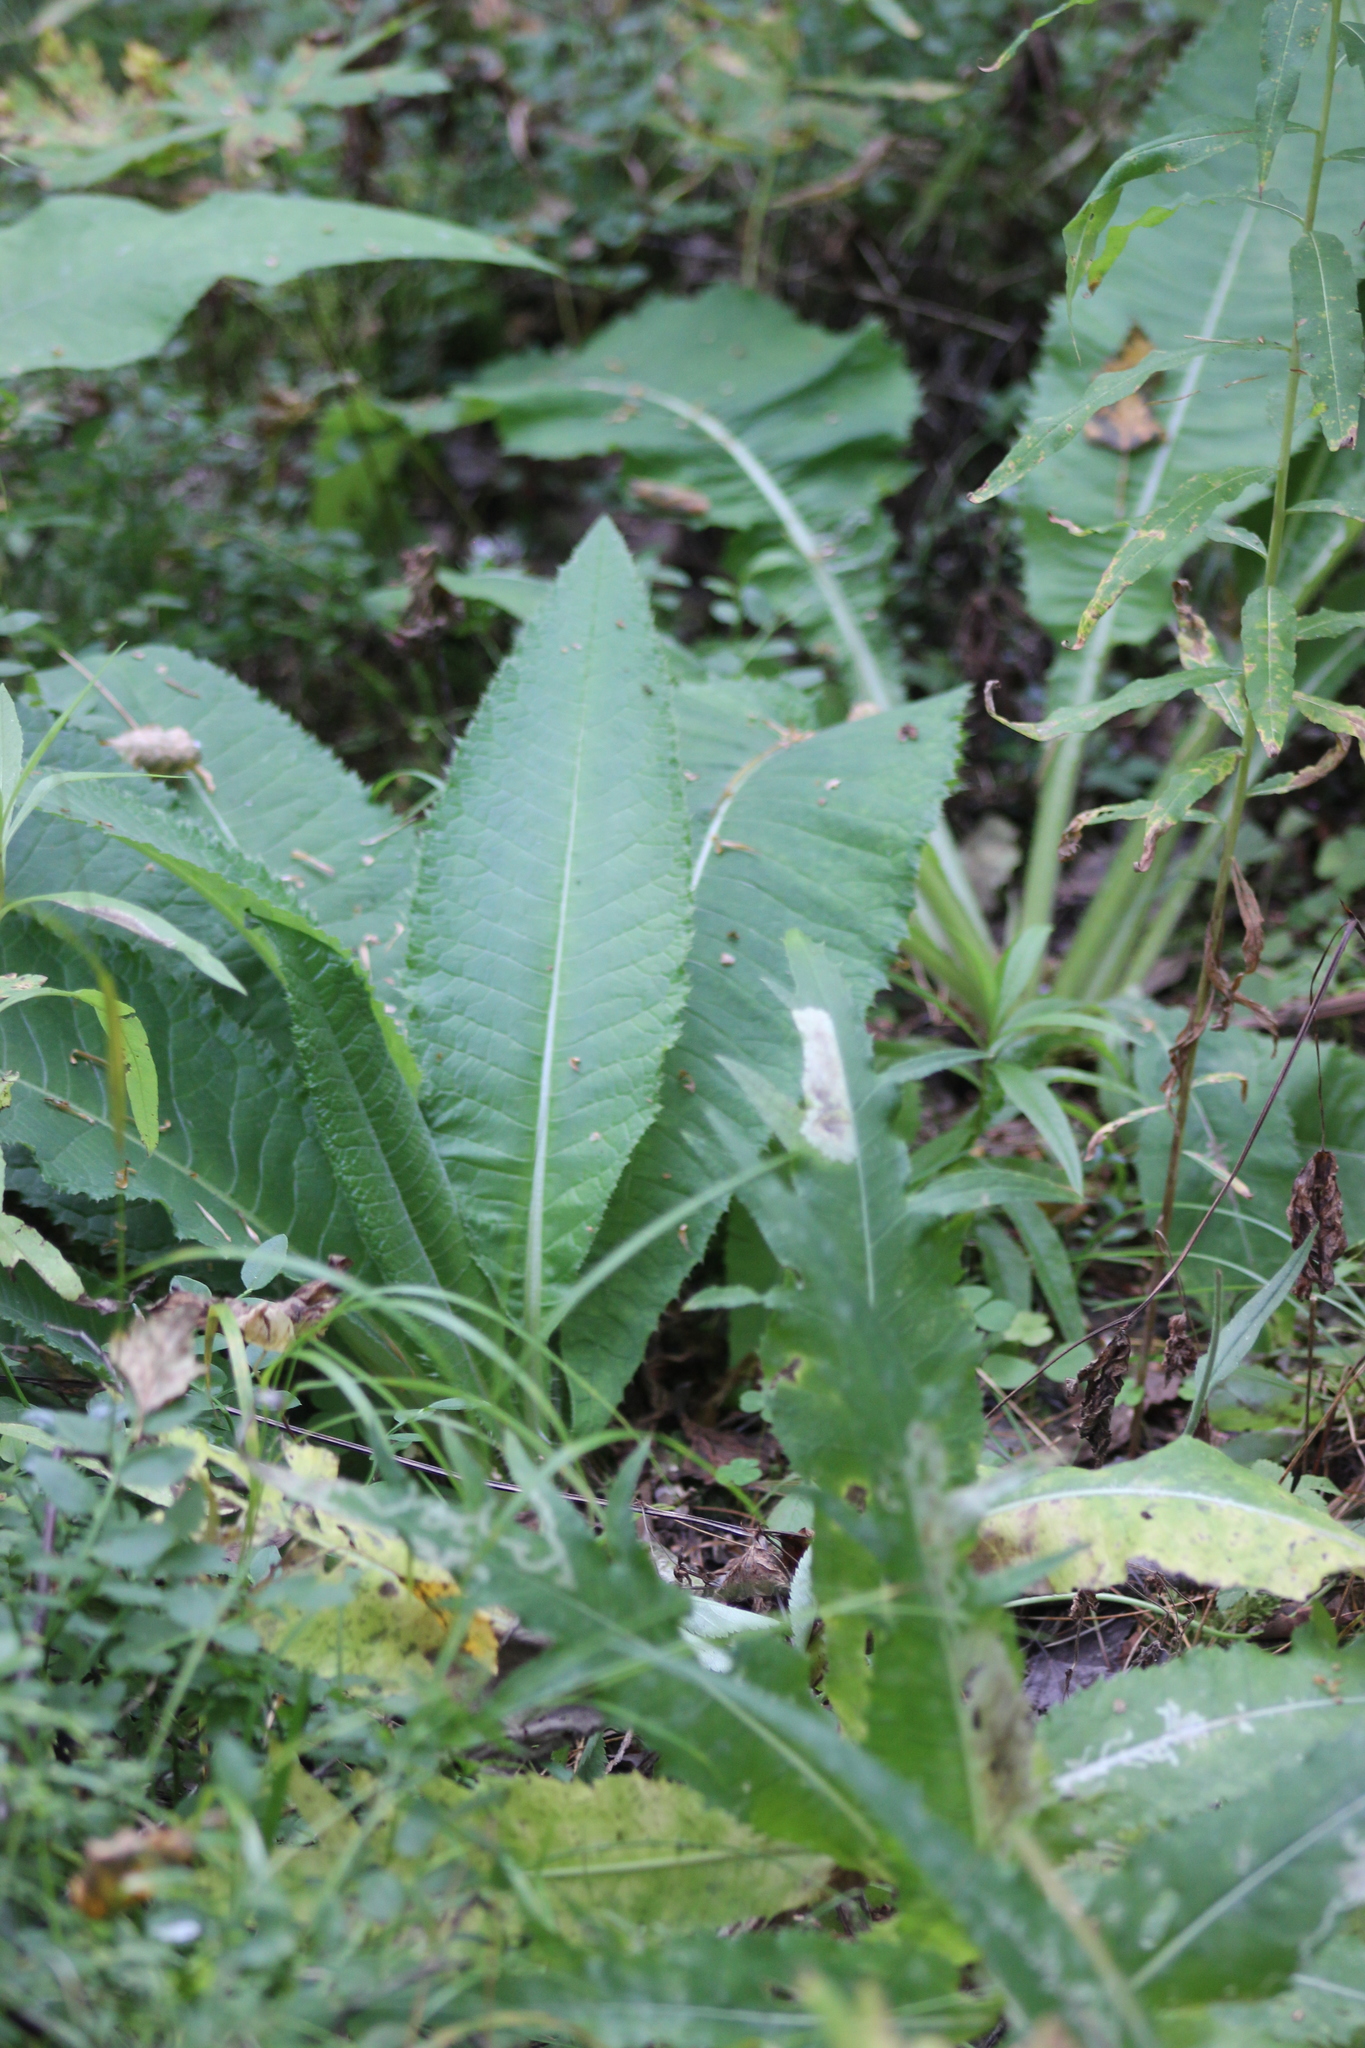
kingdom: Plantae
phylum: Tracheophyta
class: Magnoliopsida
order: Asterales
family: Asteraceae
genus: Cirsium
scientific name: Cirsium heterophyllum
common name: Melancholy thistle
